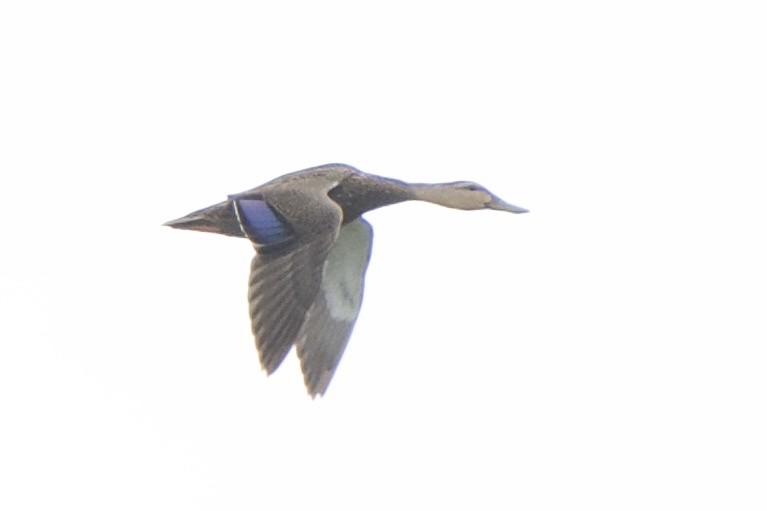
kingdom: Animalia
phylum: Chordata
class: Aves
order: Anseriformes
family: Anatidae
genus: Anas
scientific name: Anas fulvigula
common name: Mottled duck
